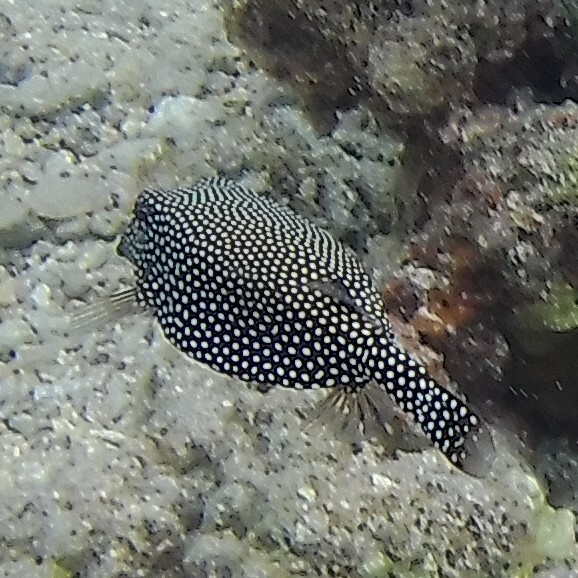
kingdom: Animalia
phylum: Chordata
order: Tetraodontiformes
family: Ostraciidae
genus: Ostracion
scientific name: Ostracion meleagris
